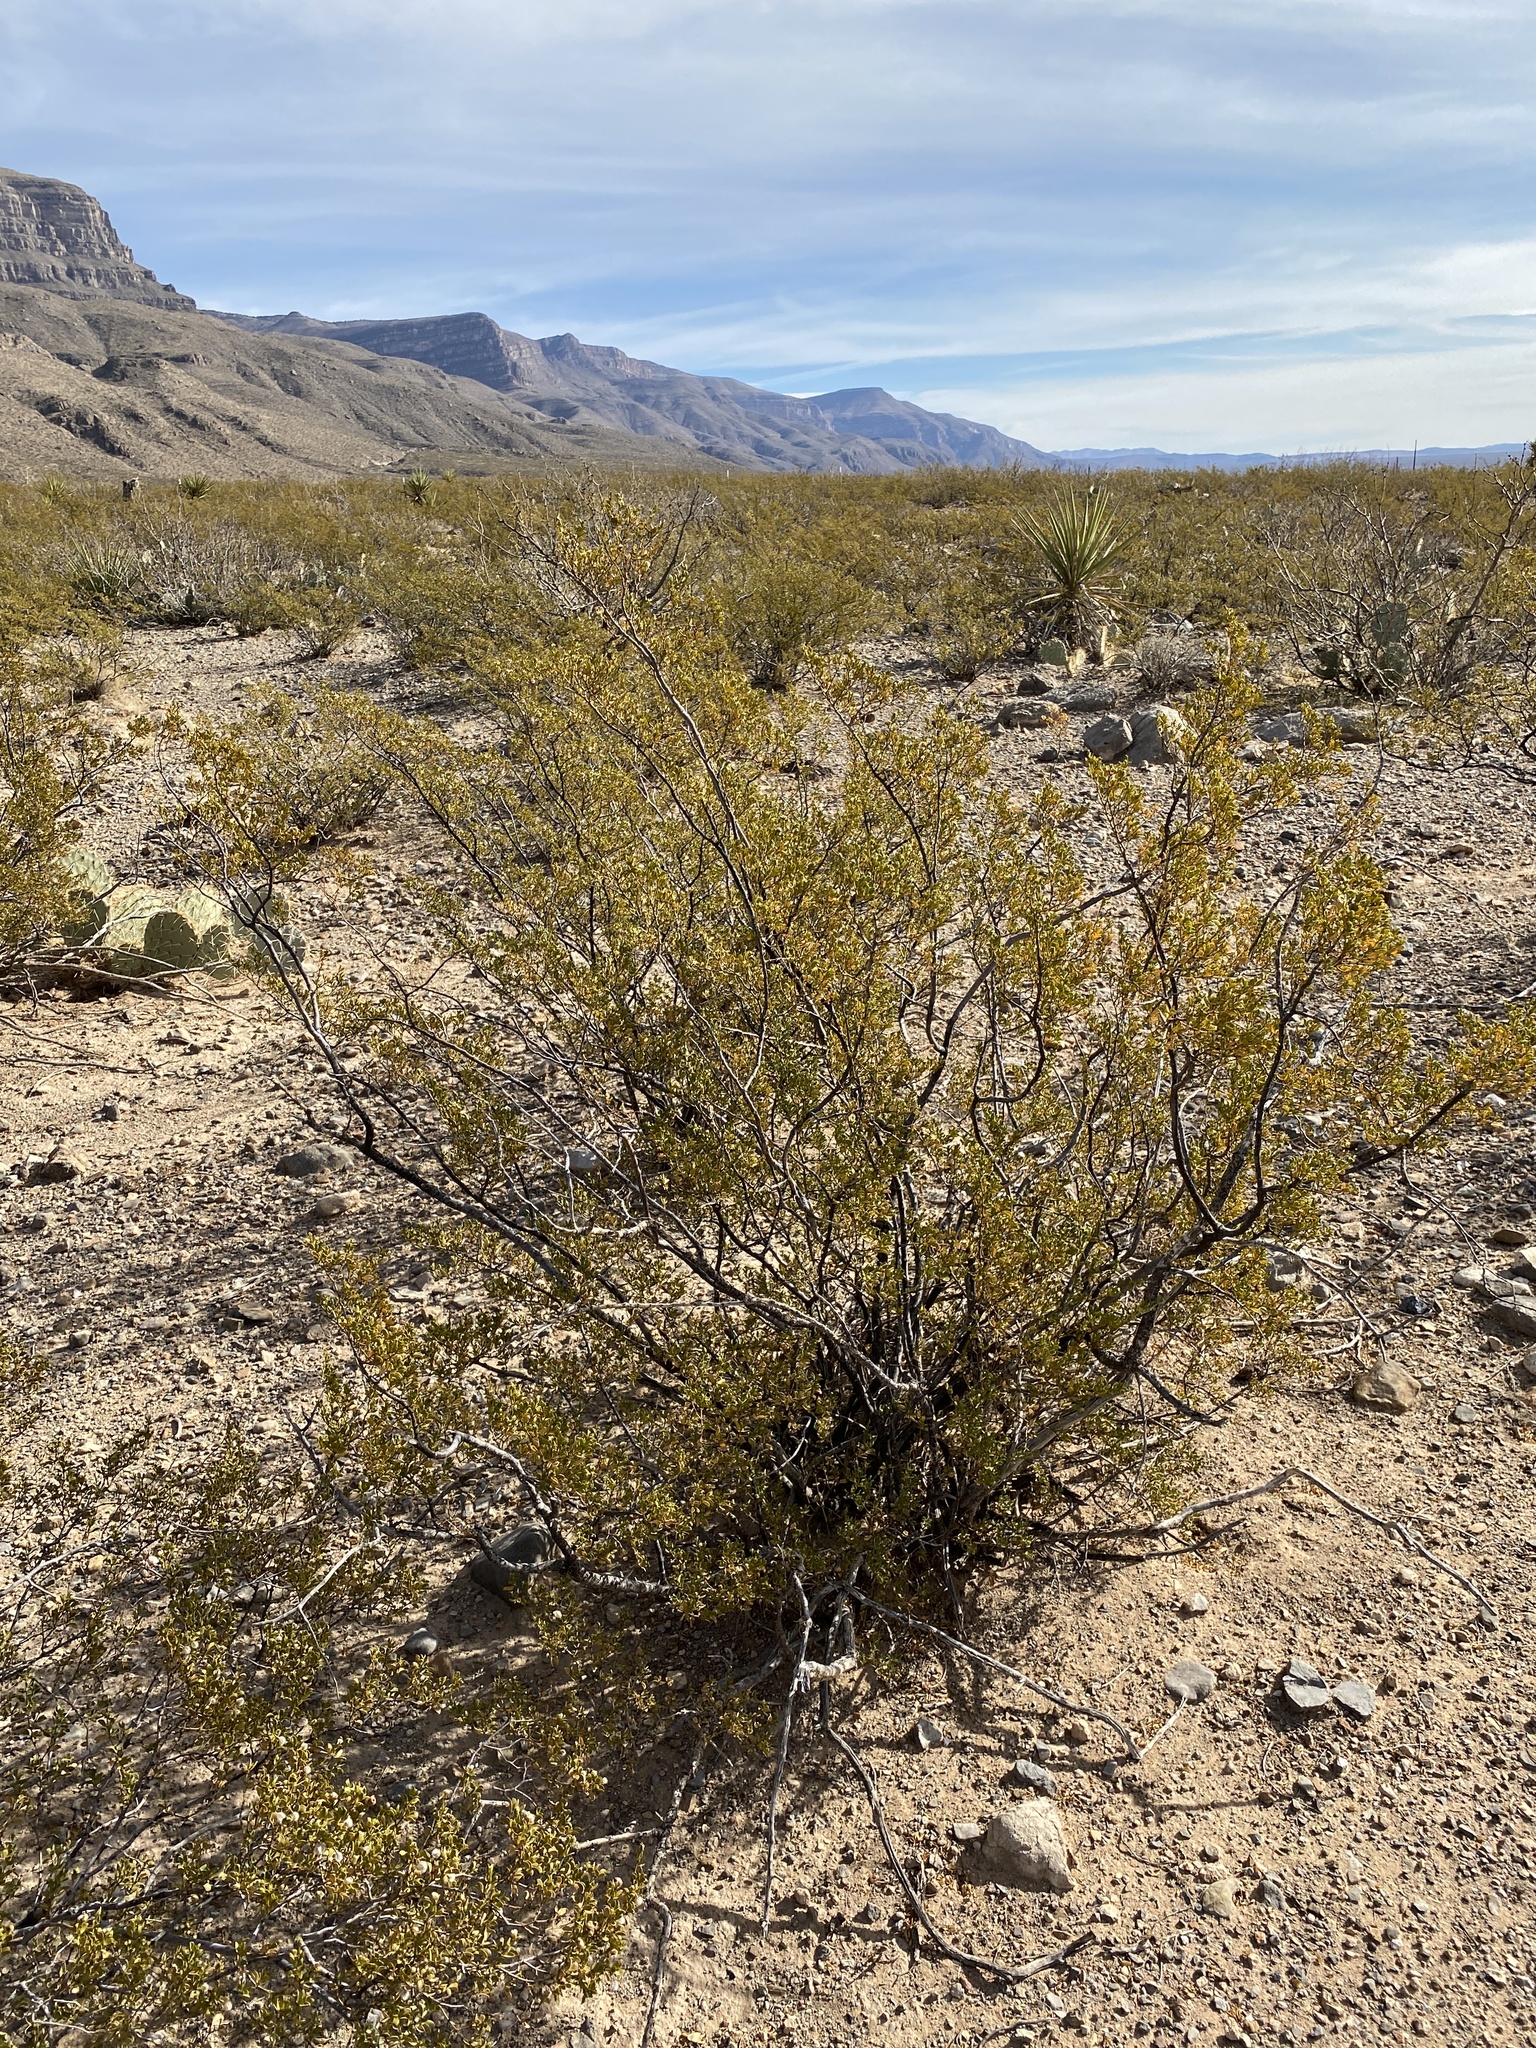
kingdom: Plantae
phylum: Tracheophyta
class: Magnoliopsida
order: Zygophyllales
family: Zygophyllaceae
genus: Larrea
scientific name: Larrea tridentata
